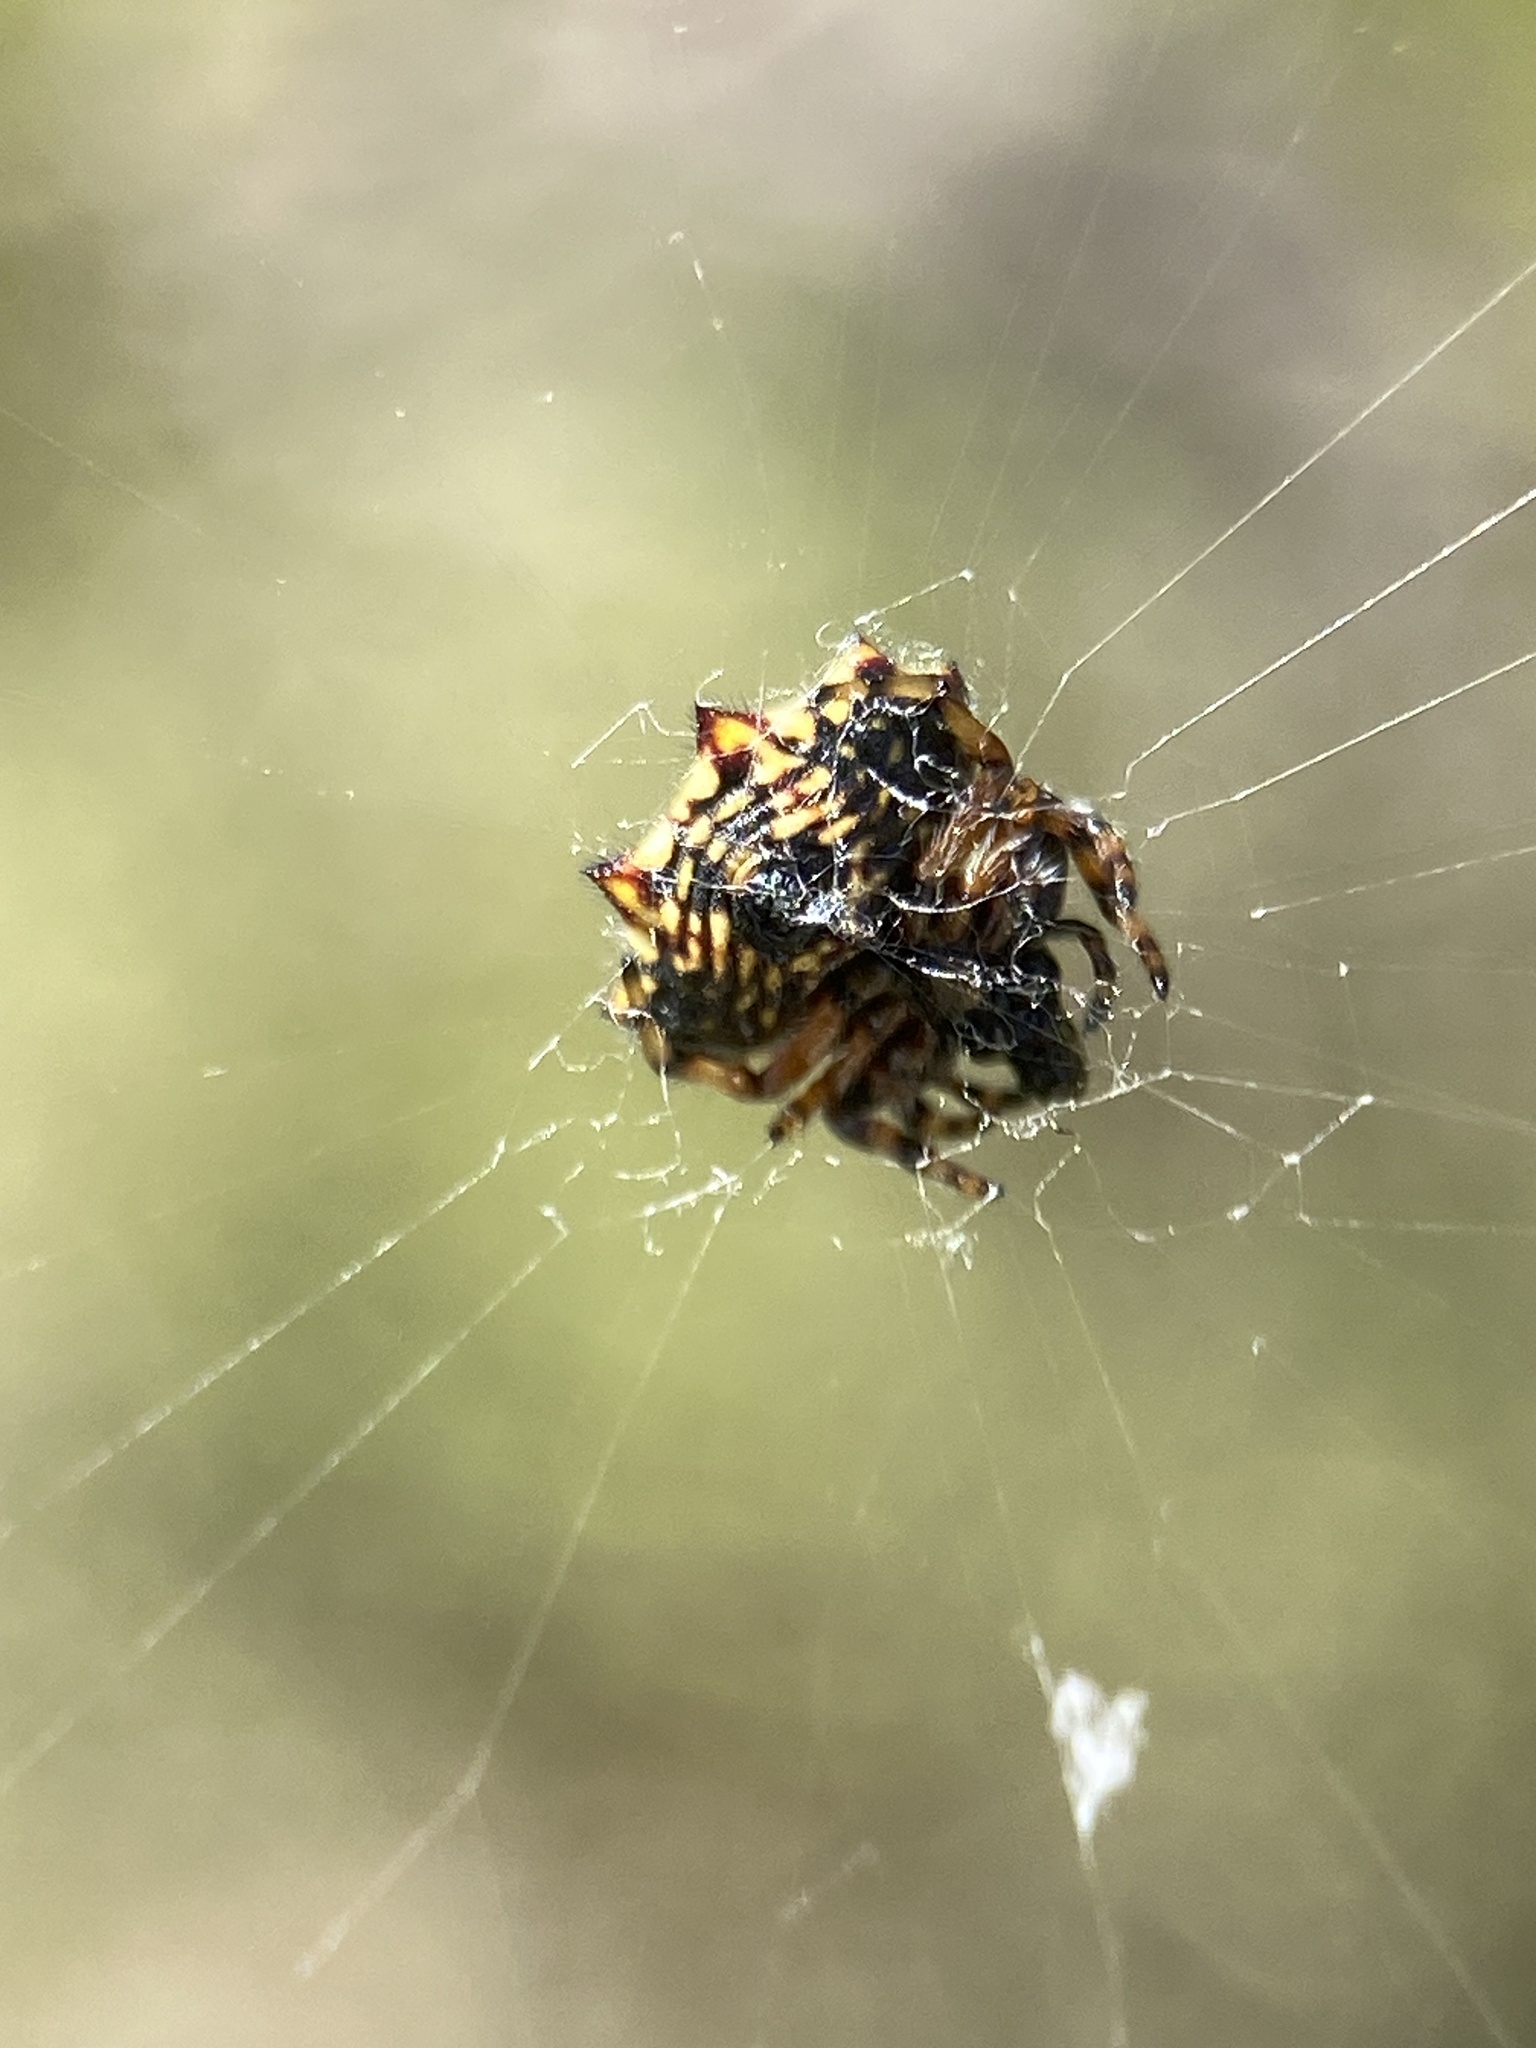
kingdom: Animalia
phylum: Arthropoda
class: Arachnida
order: Araneae
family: Araneidae
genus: Gasteracantha
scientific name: Gasteracantha cancriformis
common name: Orb weavers
